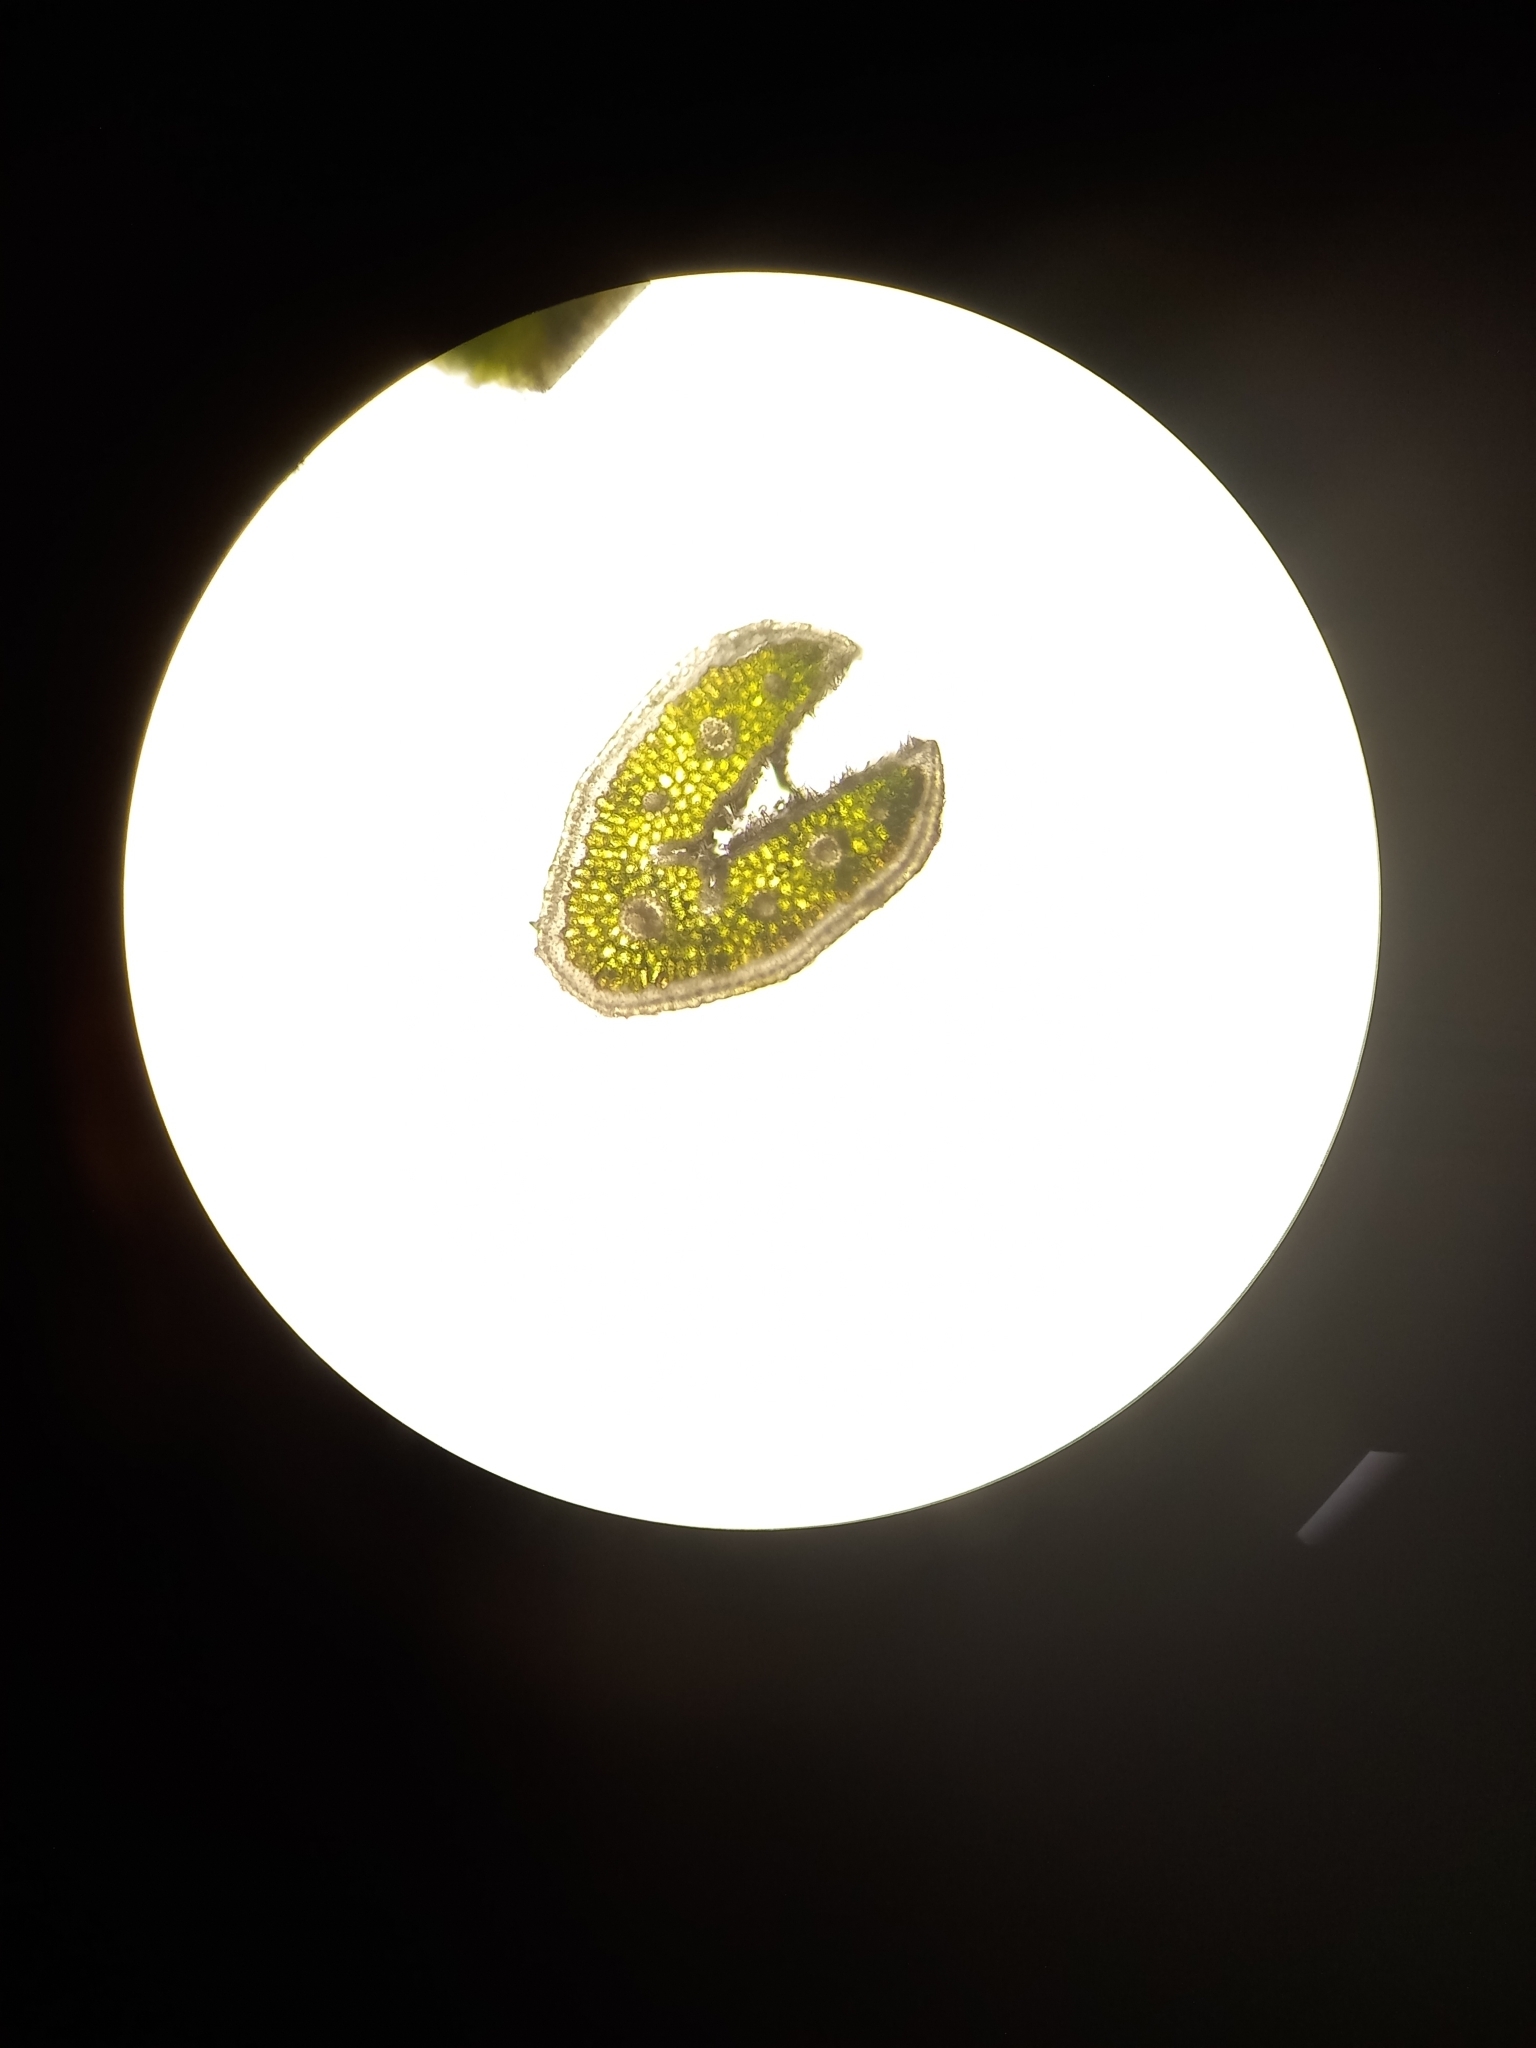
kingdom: Plantae
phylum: Tracheophyta
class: Liliopsida
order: Poales
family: Poaceae
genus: Festuca
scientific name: Festuca lemanii
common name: Confused fescue
